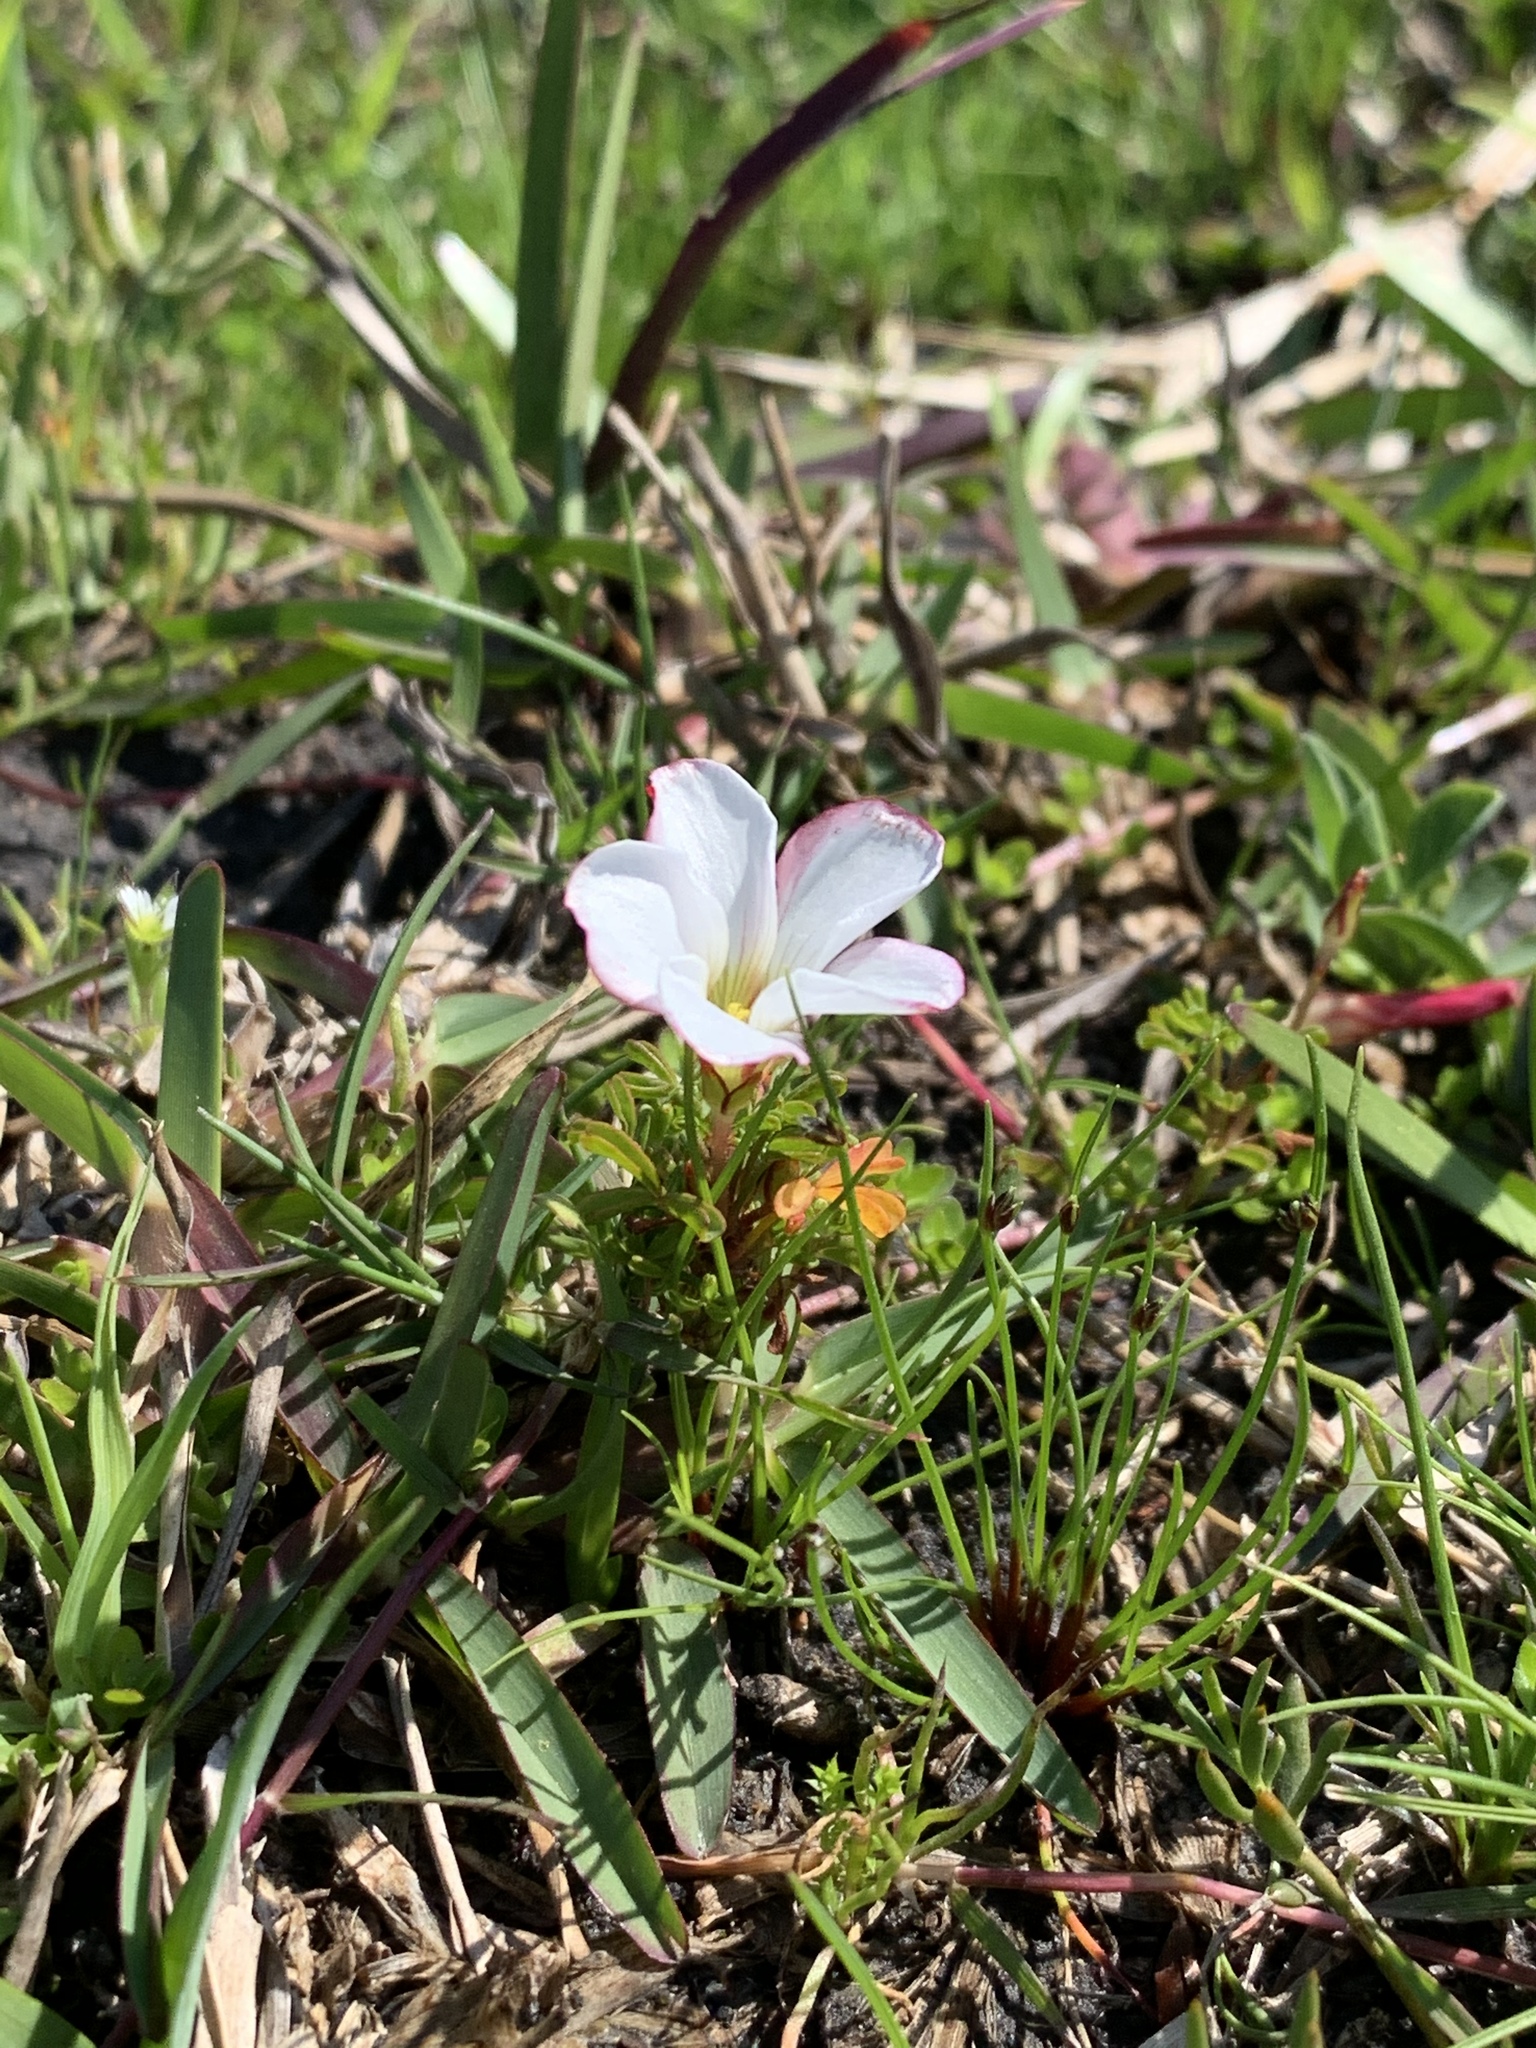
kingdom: Plantae
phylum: Tracheophyta
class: Magnoliopsida
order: Oxalidales
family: Oxalidaceae
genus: Oxalis
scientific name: Oxalis multicaulis
